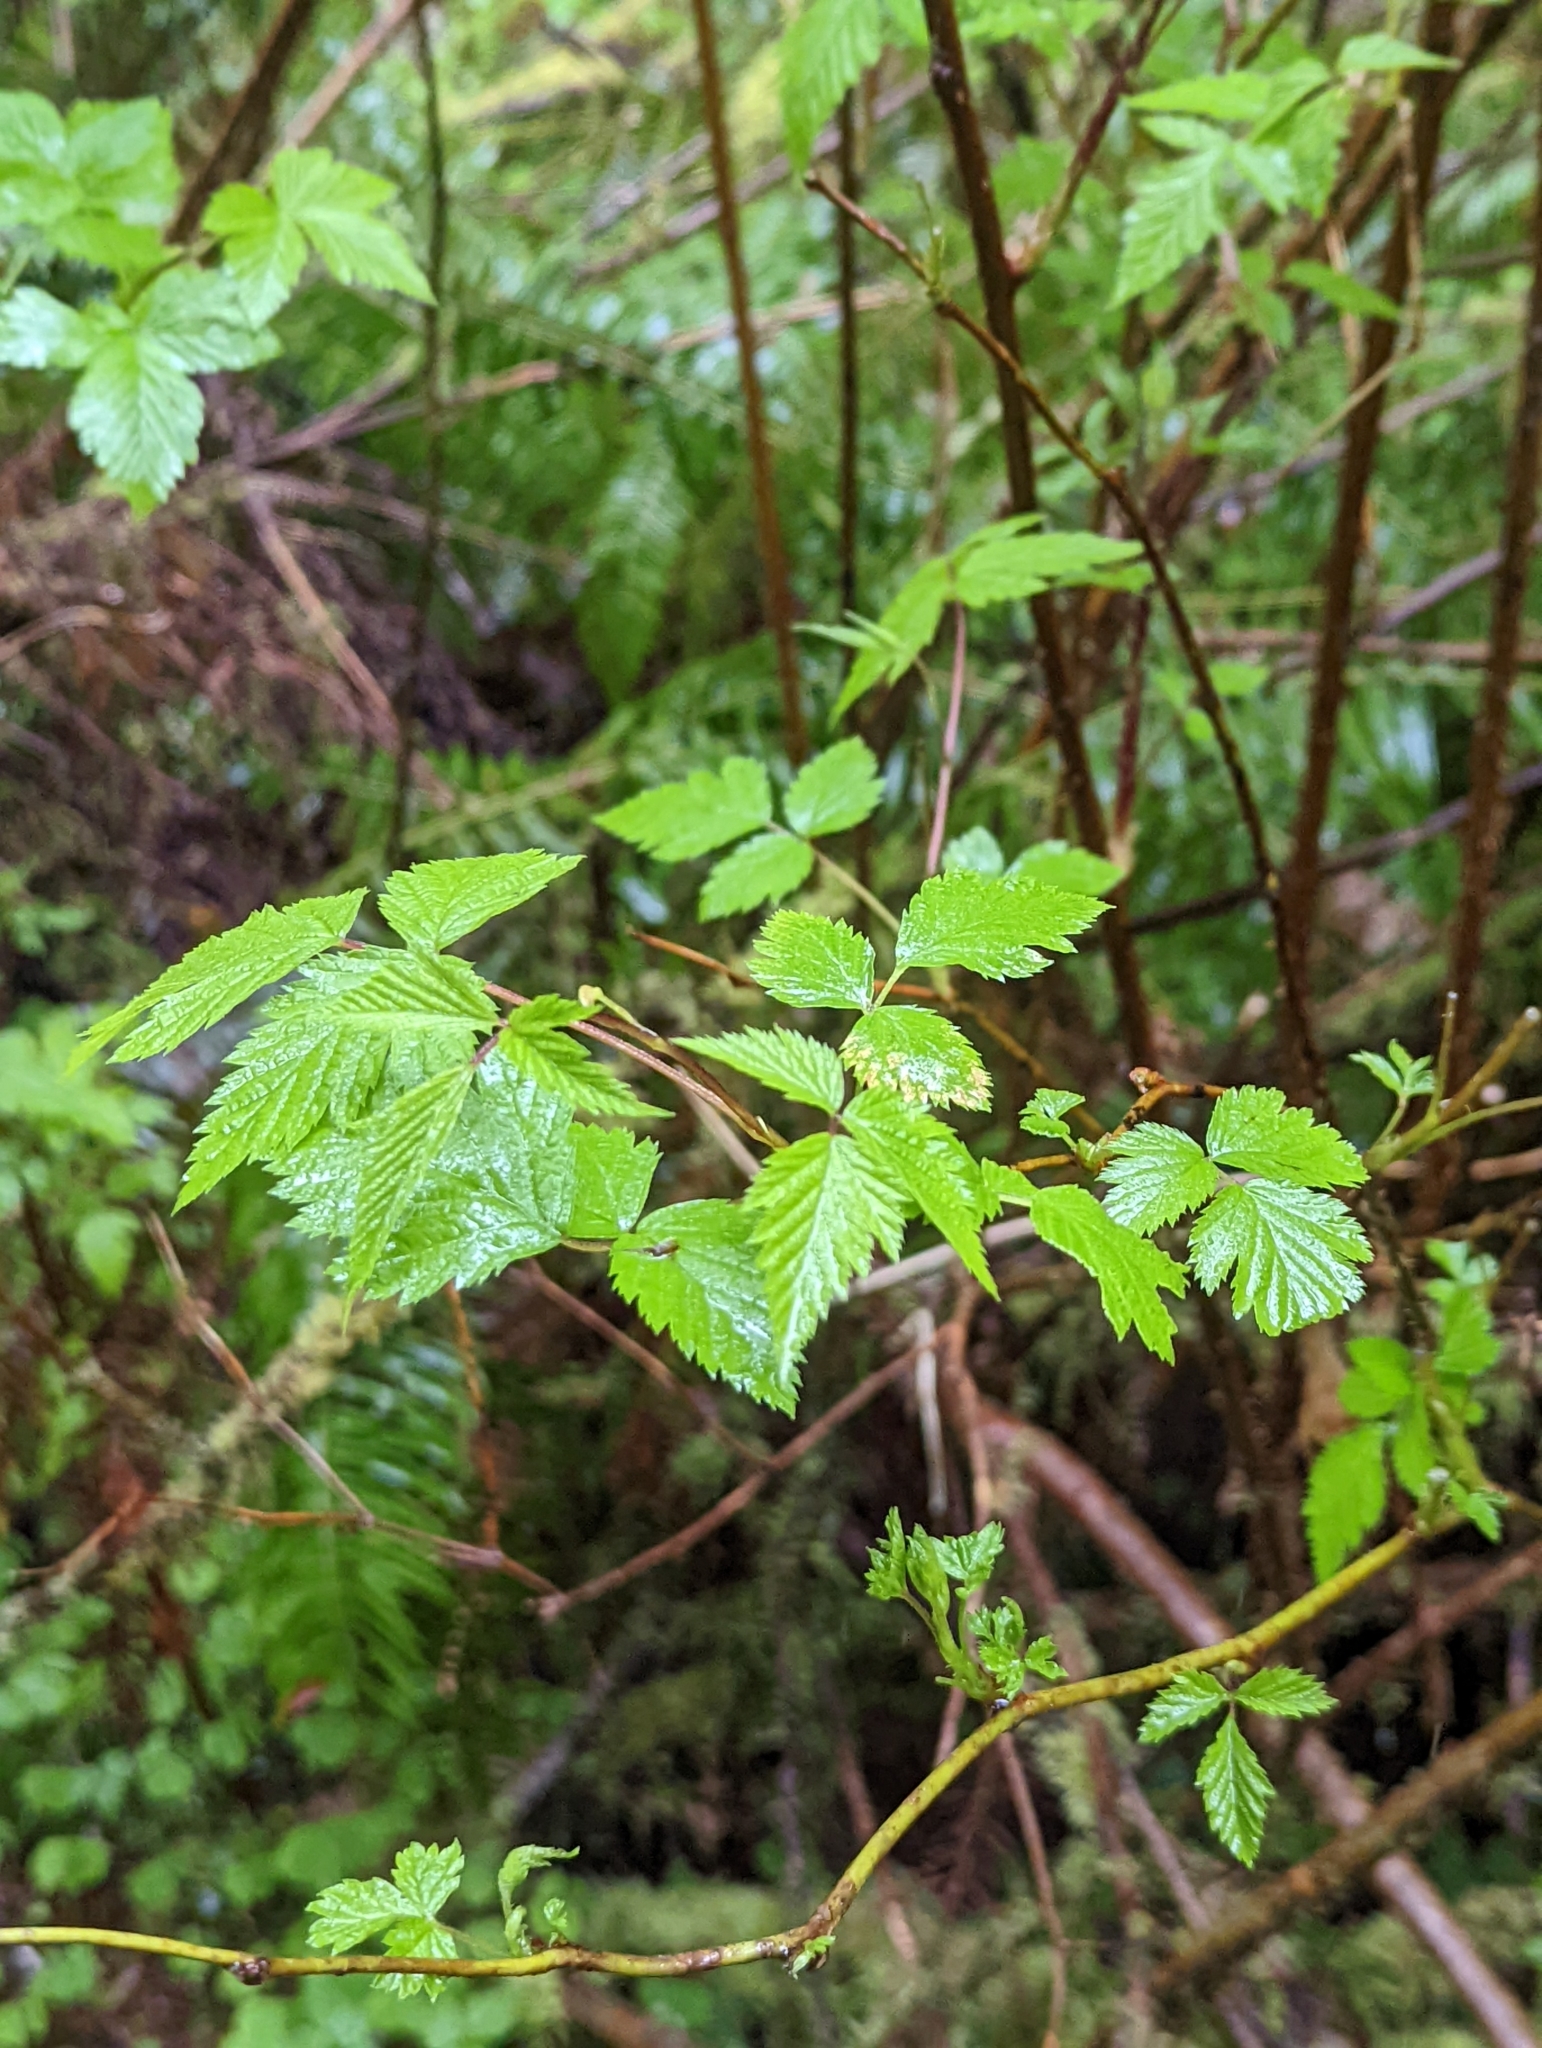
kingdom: Plantae
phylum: Tracheophyta
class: Magnoliopsida
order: Rosales
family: Rosaceae
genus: Rubus
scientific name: Rubus spectabilis
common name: Salmonberry
